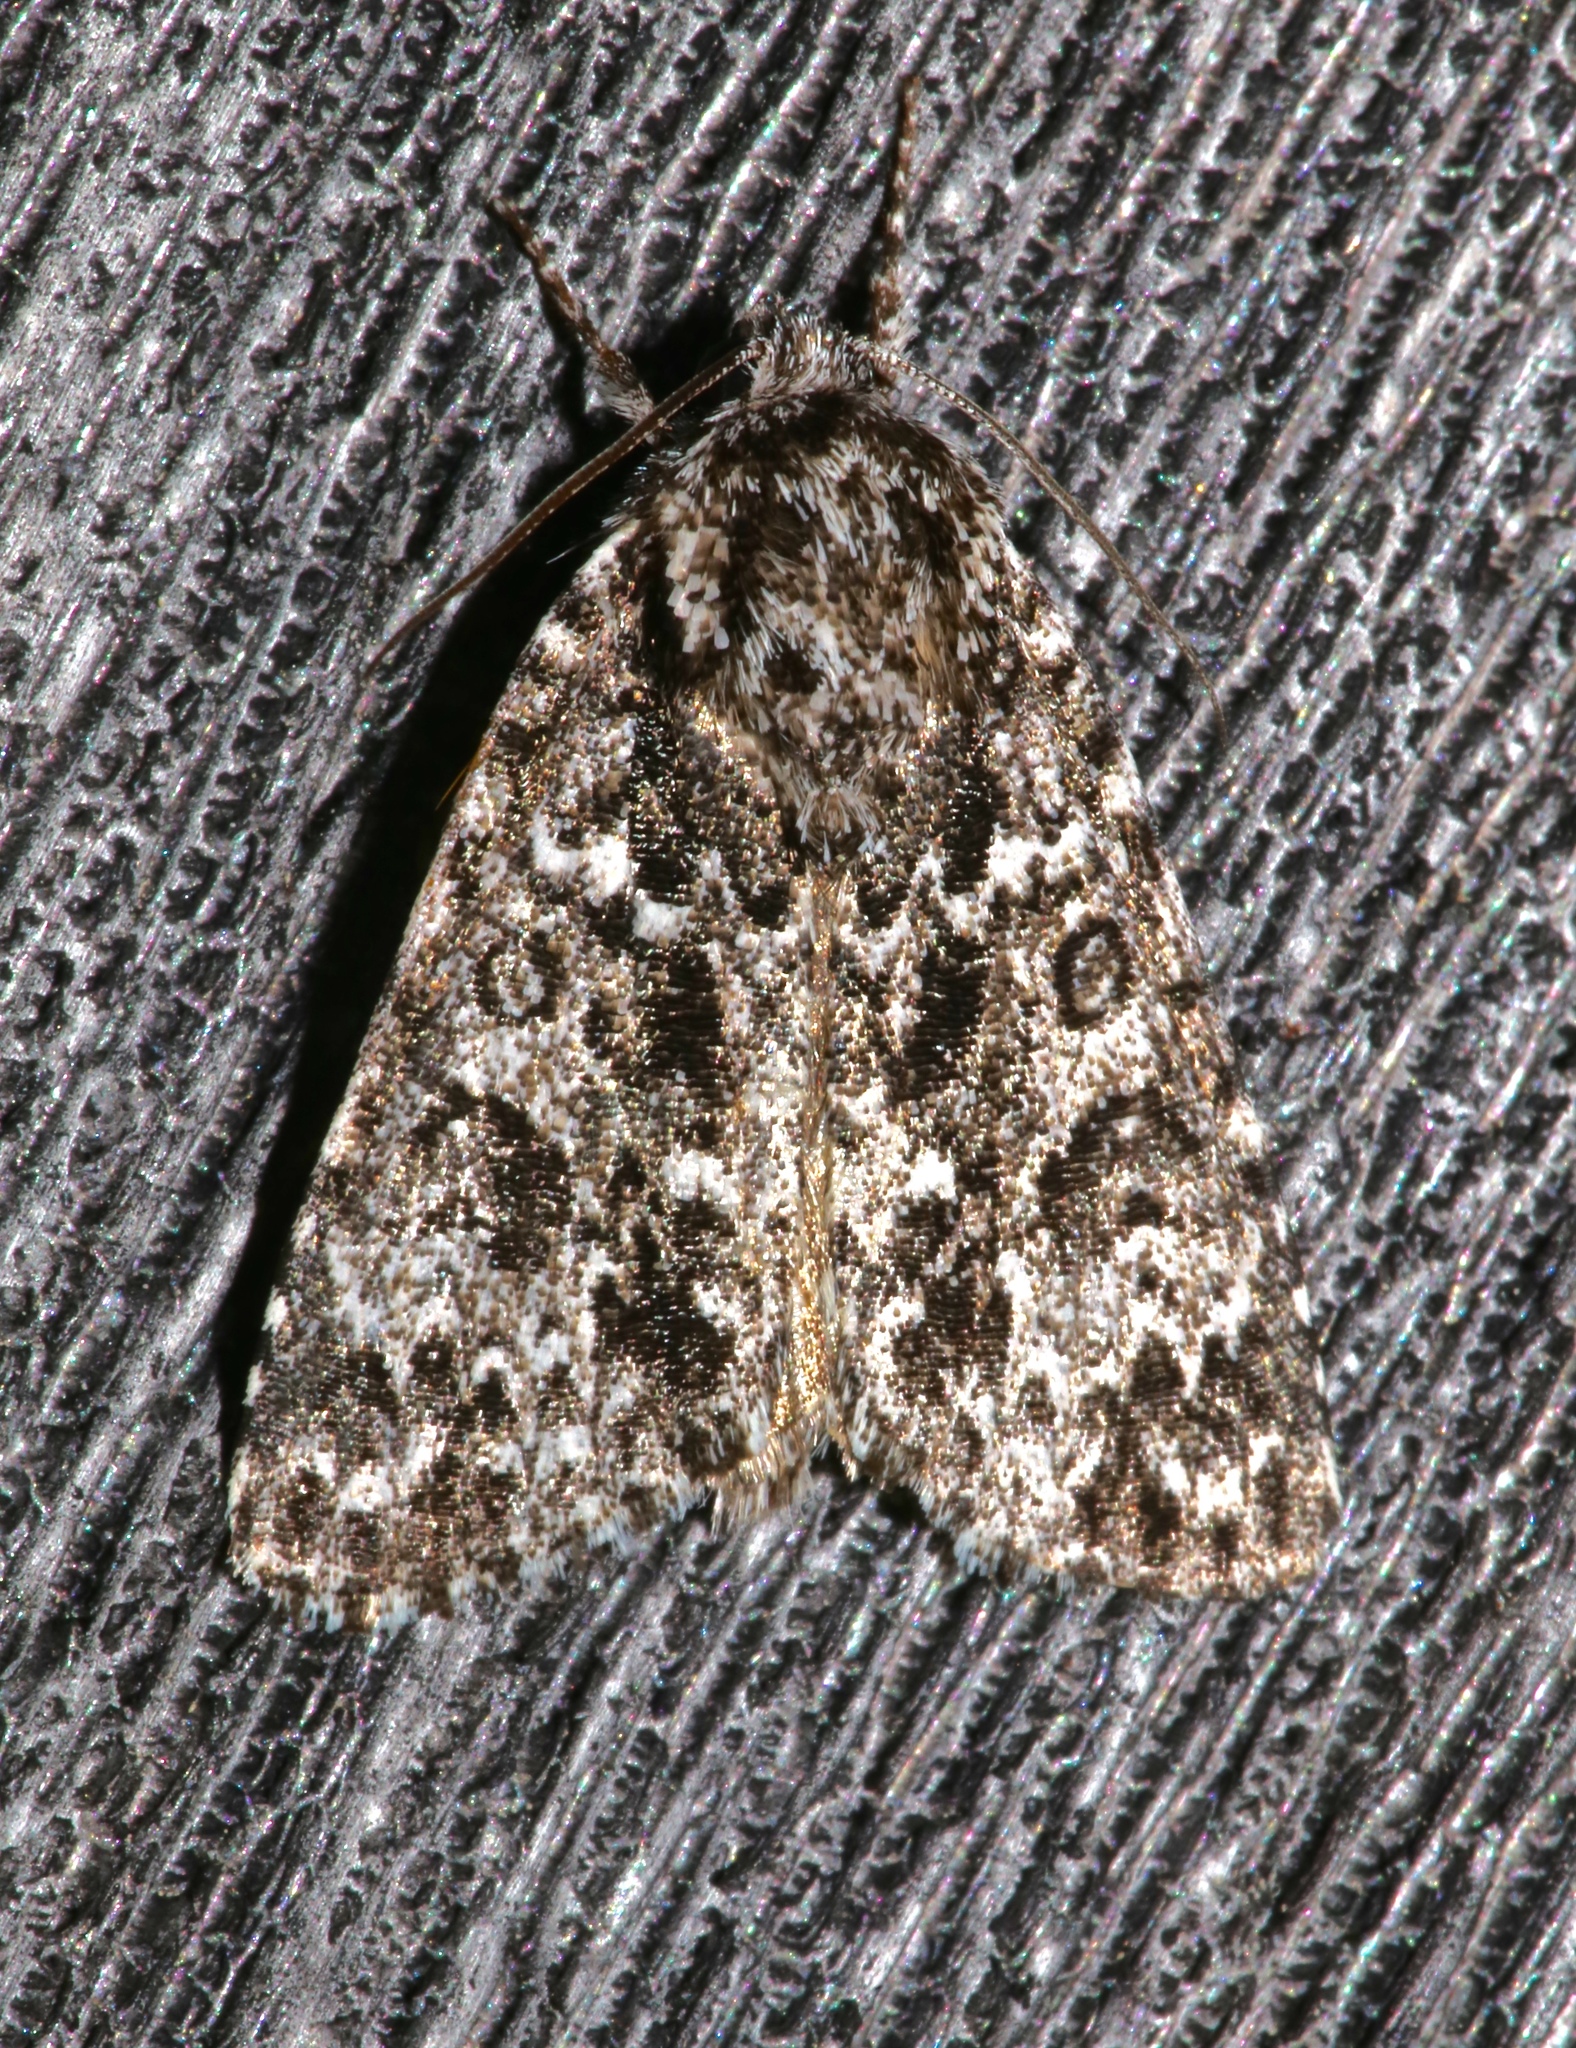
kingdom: Animalia
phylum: Arthropoda
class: Insecta
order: Lepidoptera
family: Noctuidae
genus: Acronicta
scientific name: Acronicta noctivaga
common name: Night-wandering dagger
